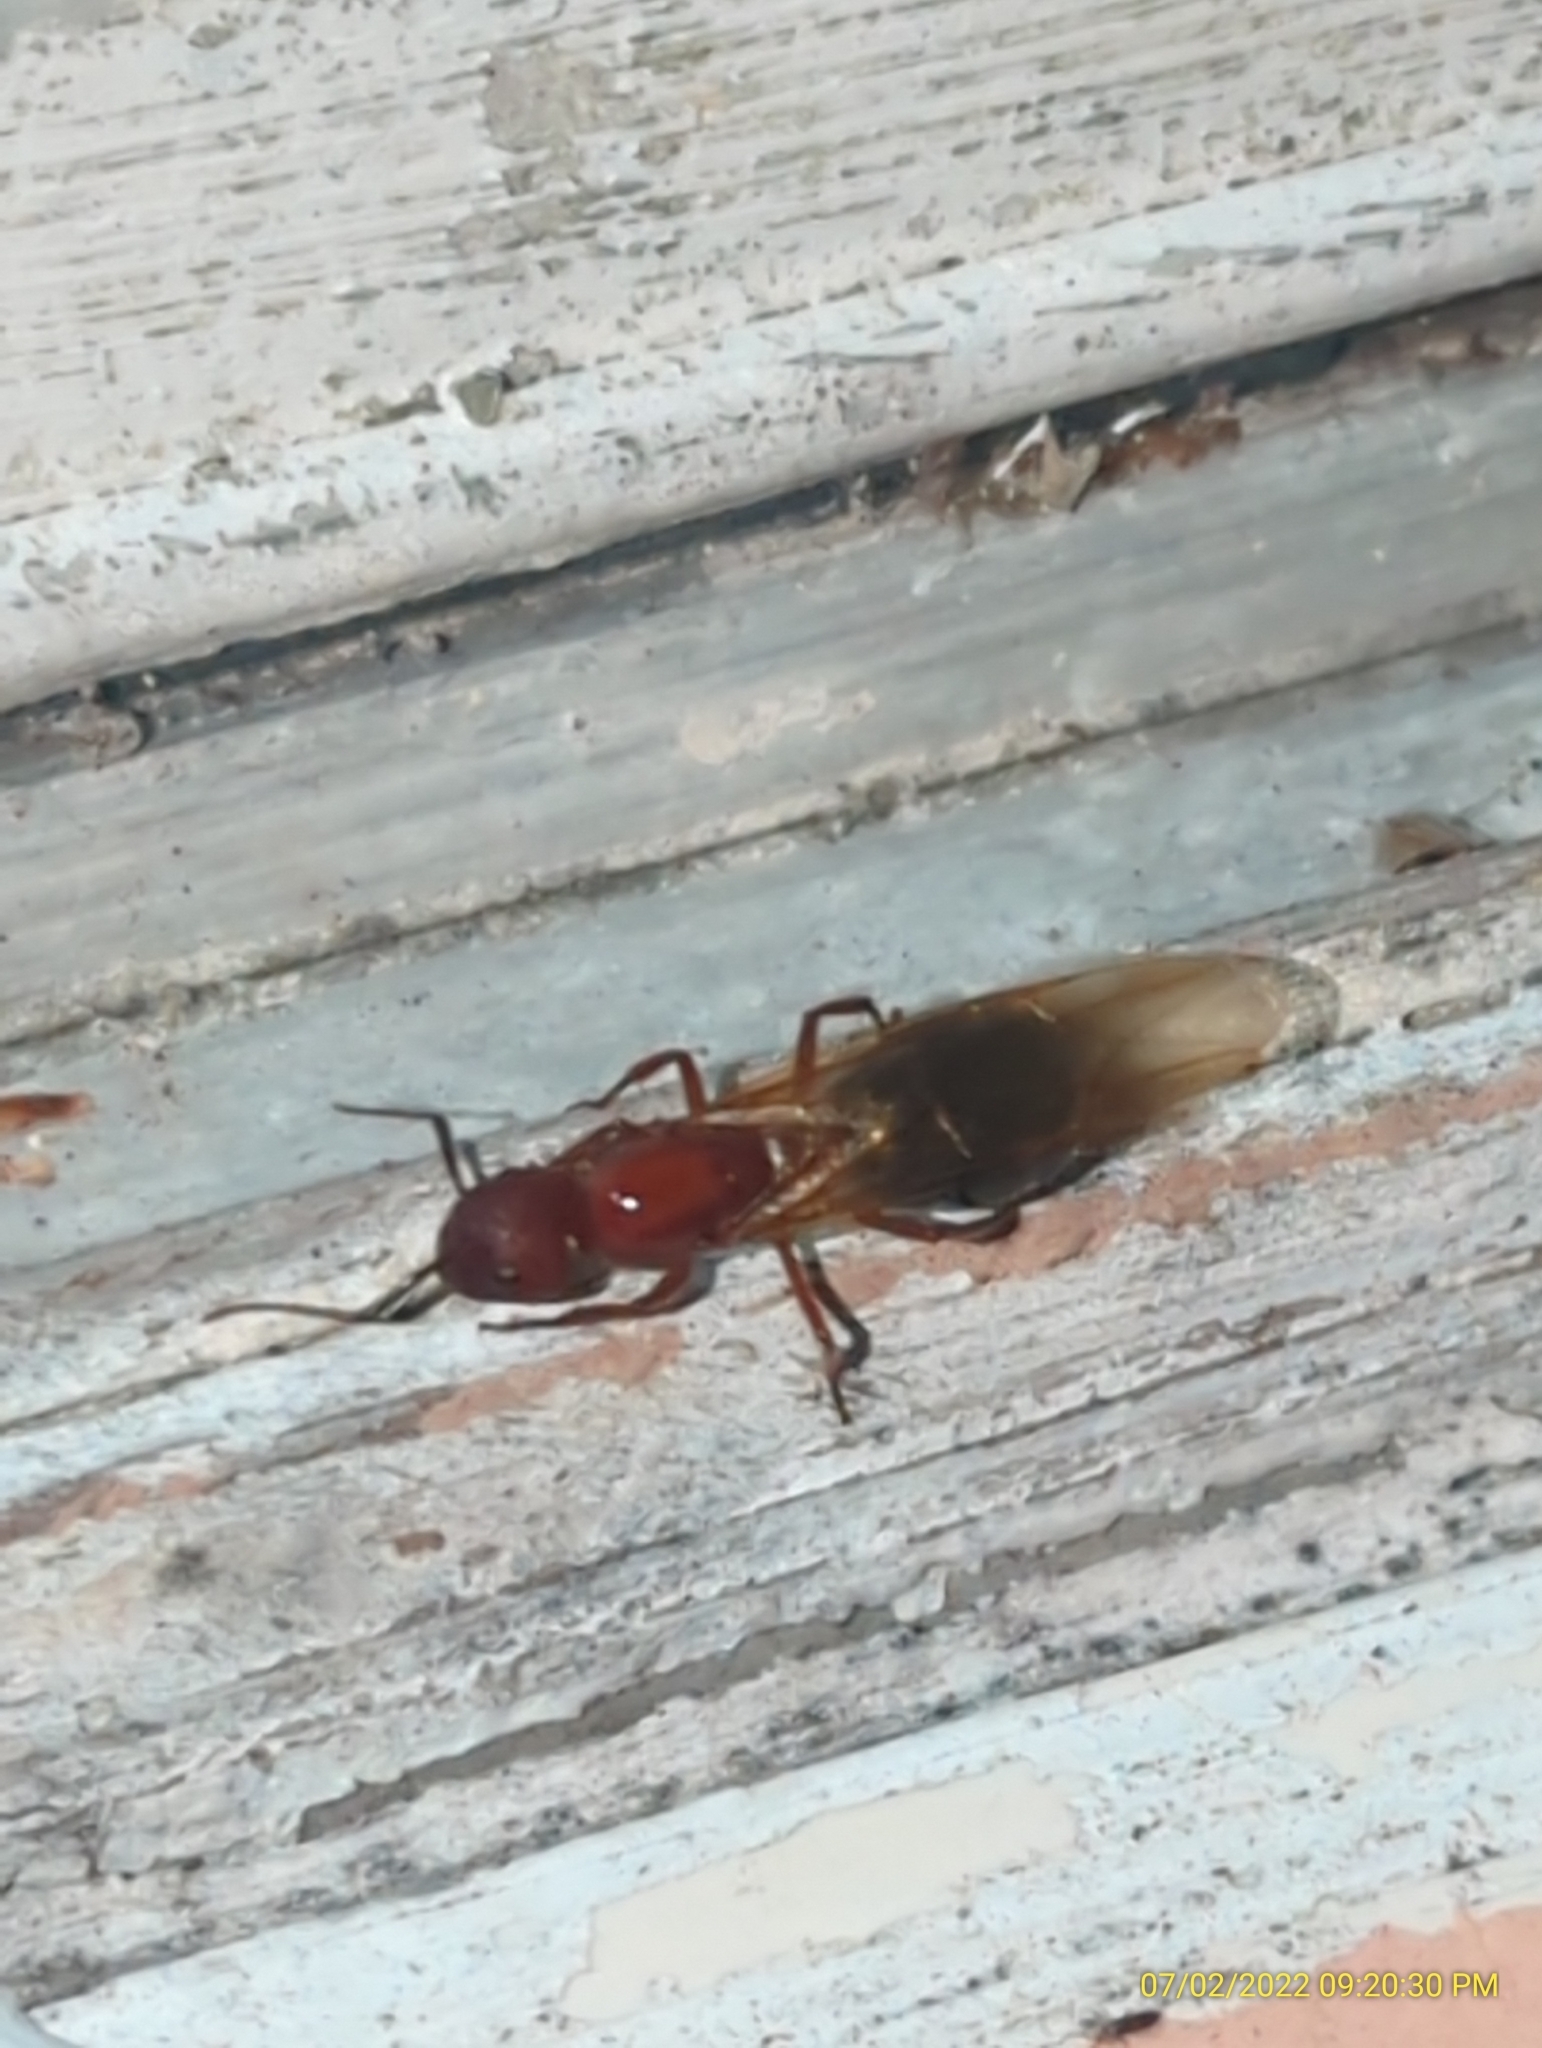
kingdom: Animalia
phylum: Arthropoda
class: Insecta
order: Hymenoptera
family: Formicidae
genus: Camponotus
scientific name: Camponotus floridanus
